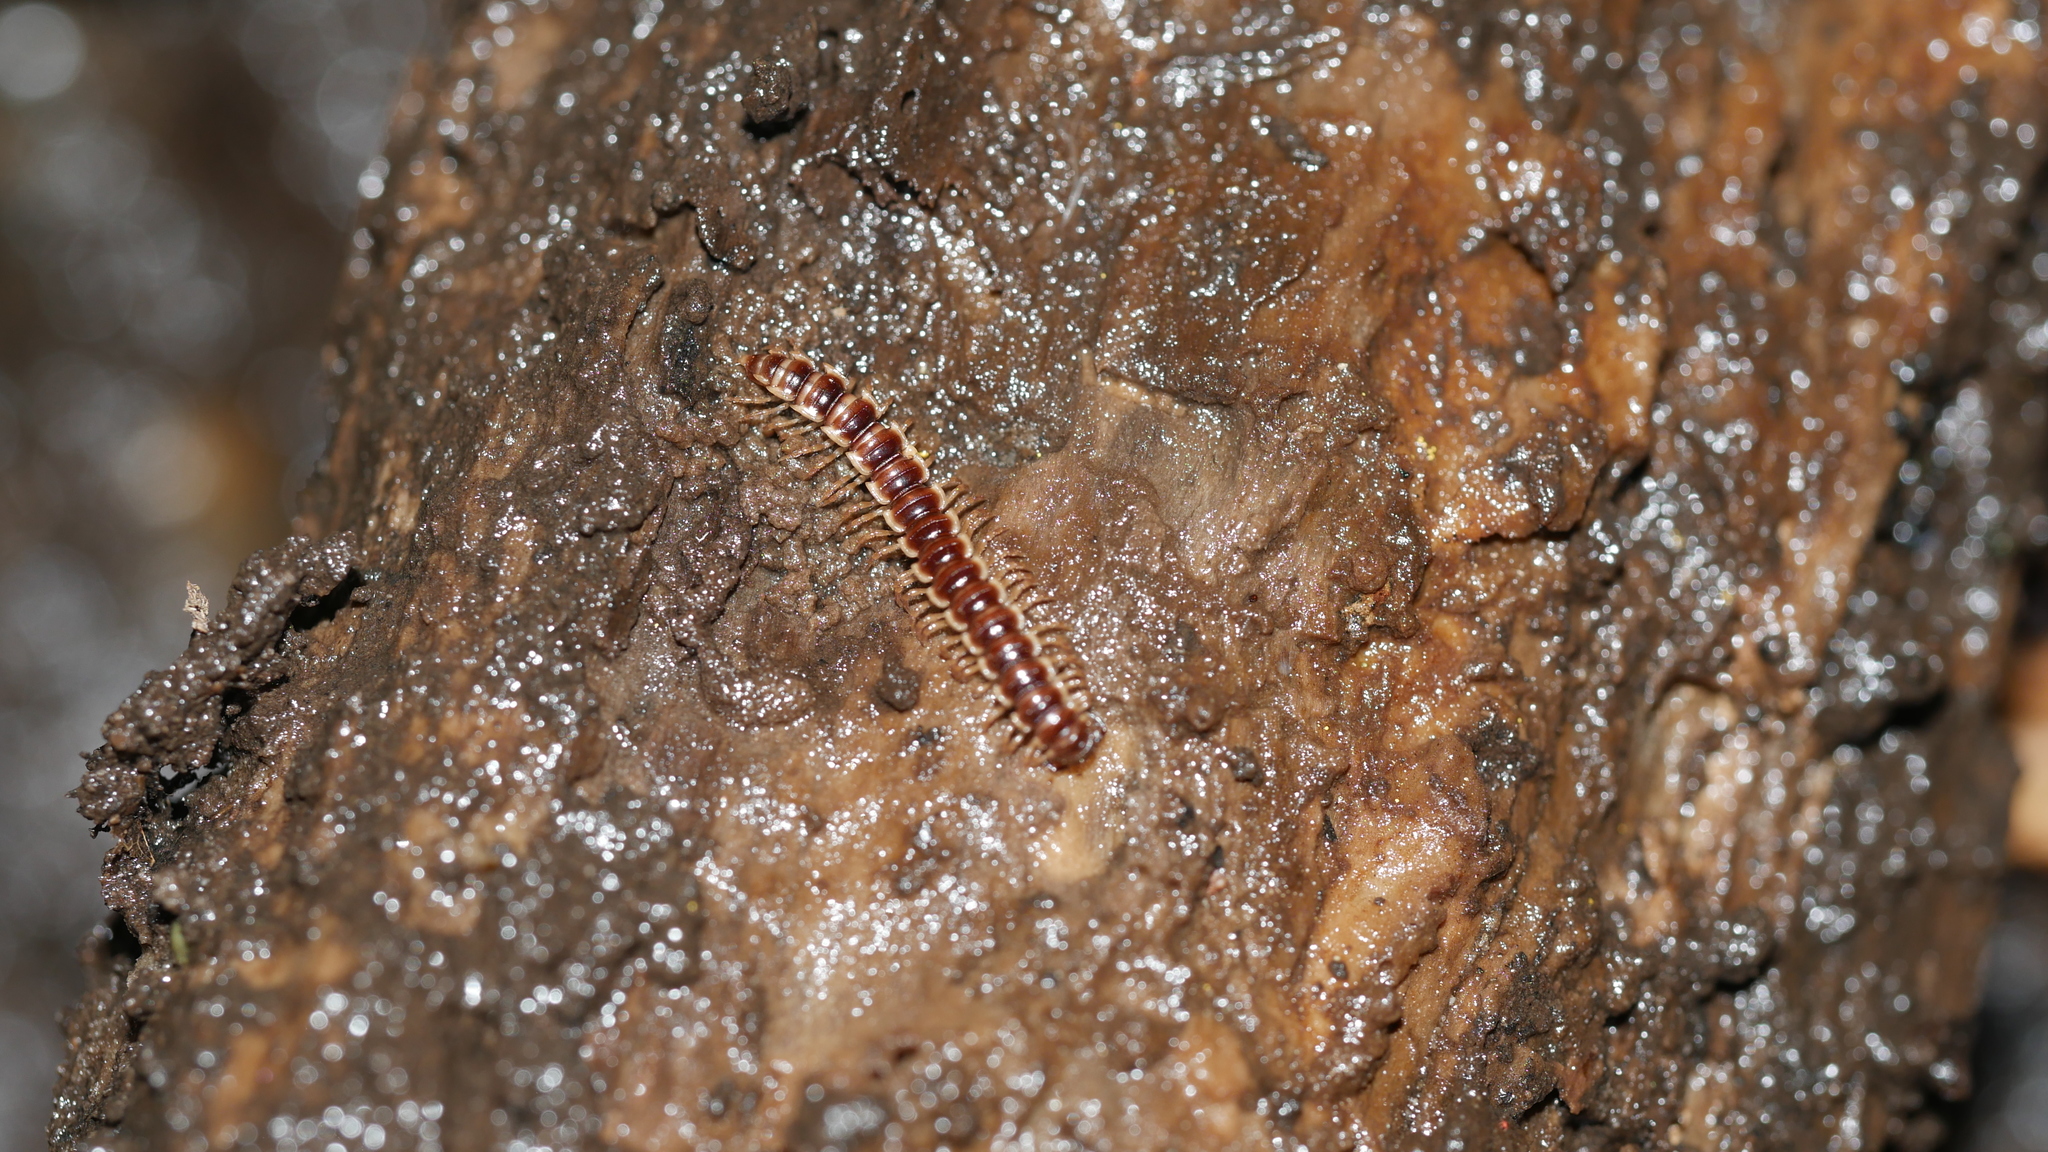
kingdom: Animalia
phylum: Arthropoda
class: Diplopoda
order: Polydesmida
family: Paradoxosomatidae
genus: Oxidus
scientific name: Oxidus gracilis
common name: Greenhouse millipede
